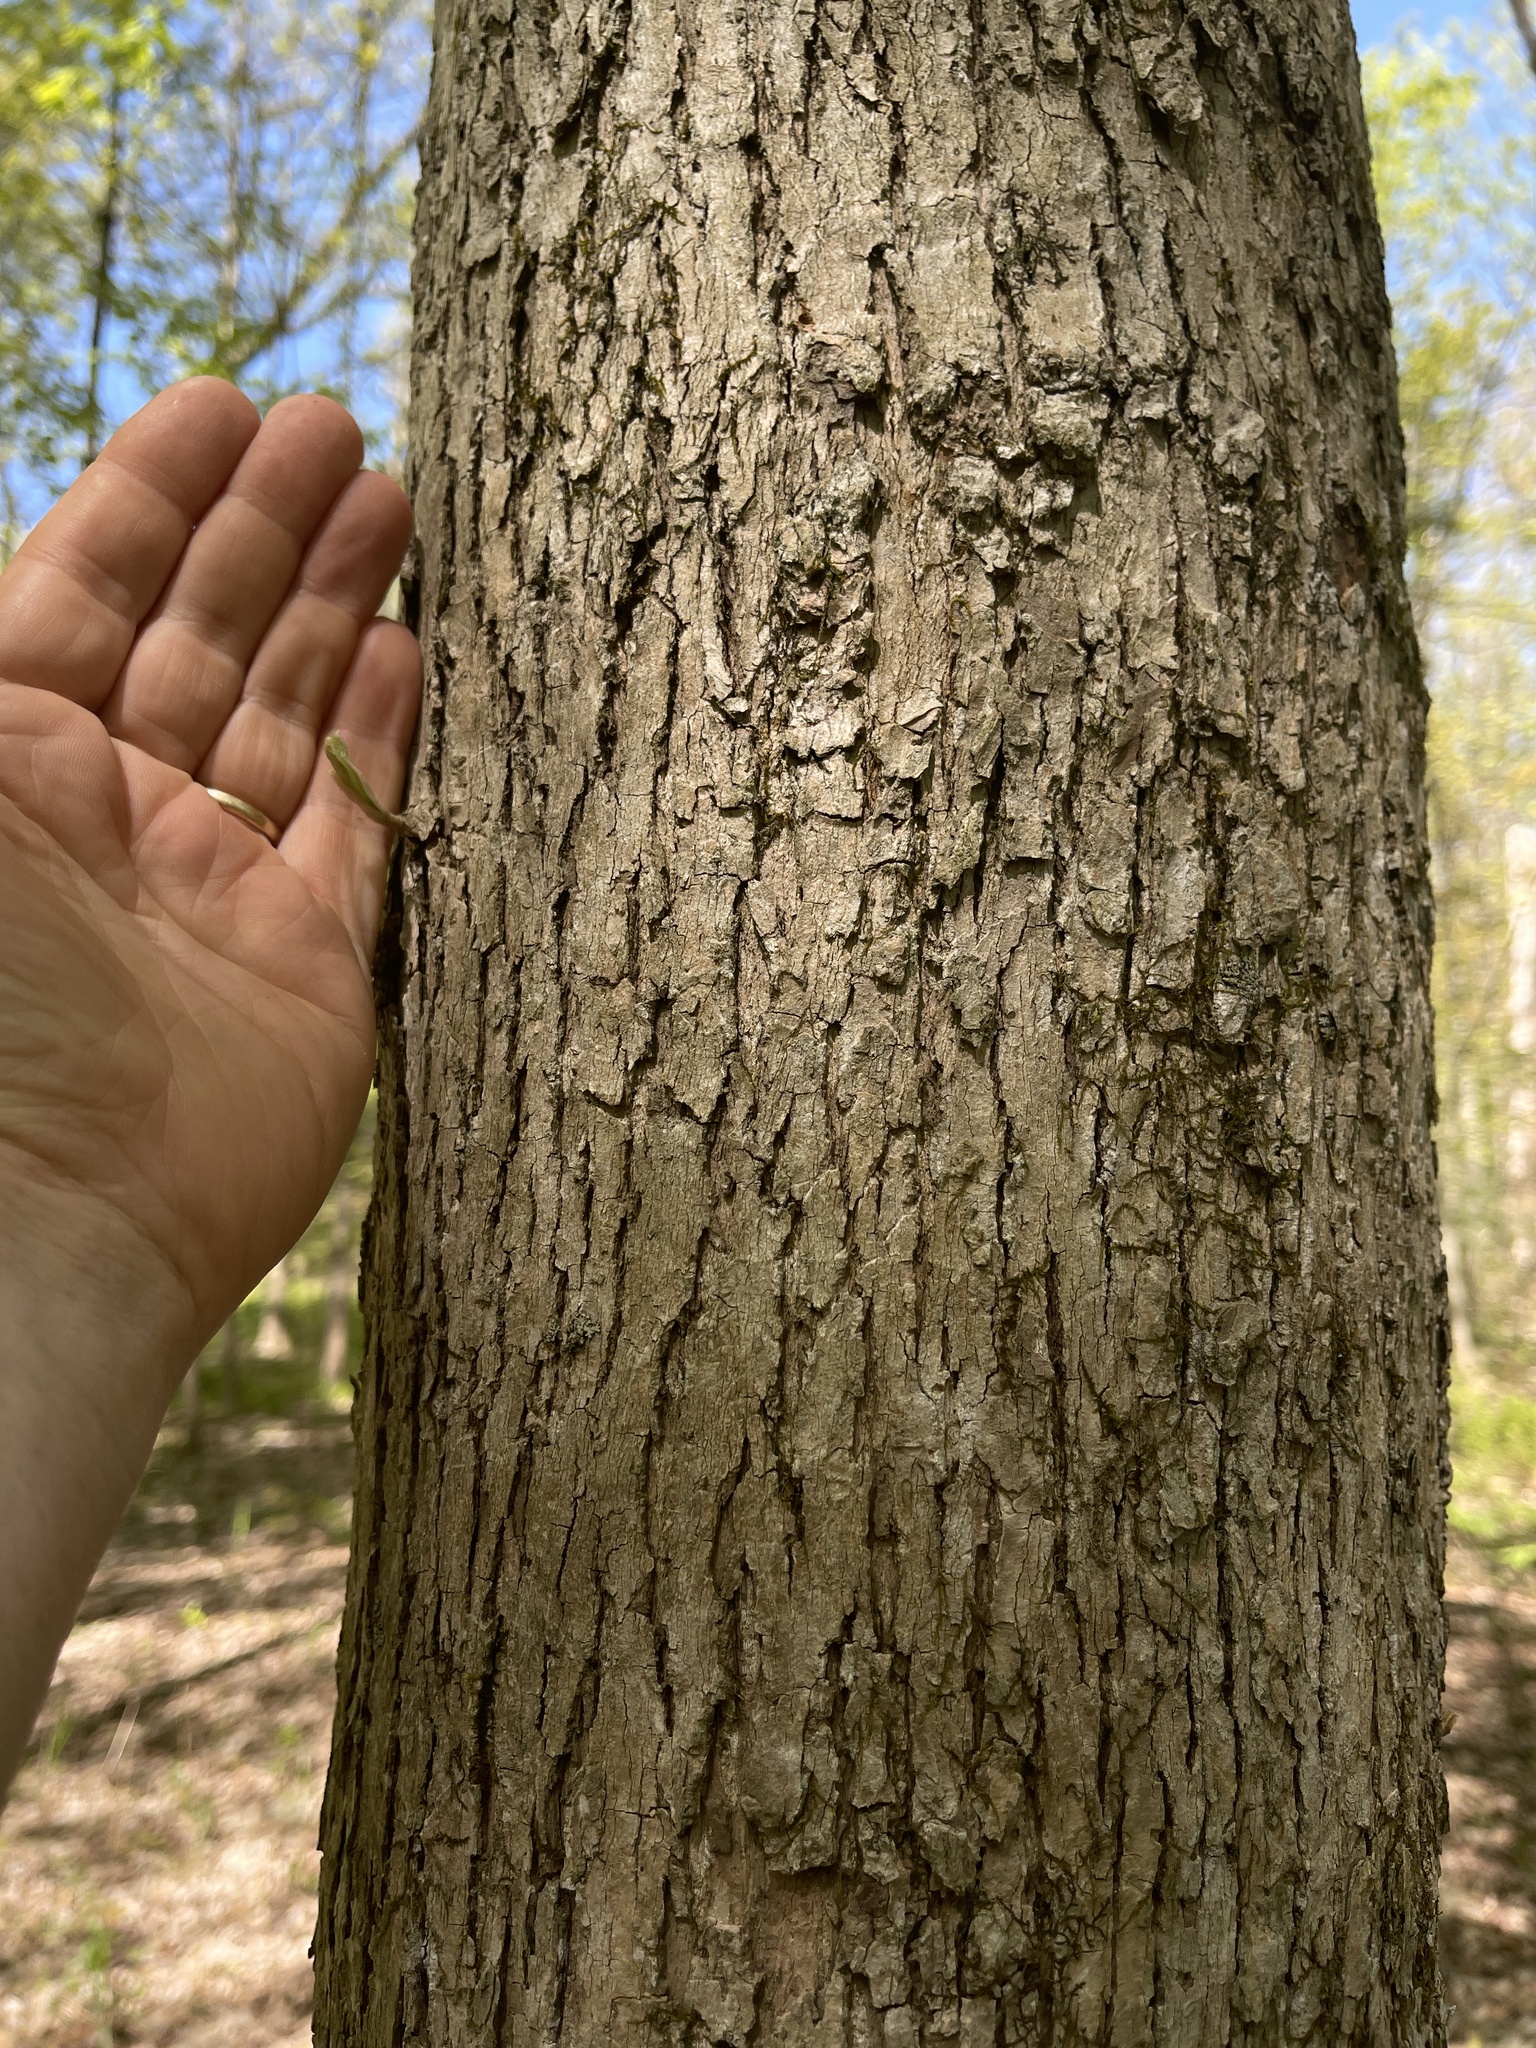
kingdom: Plantae
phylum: Tracheophyta
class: Magnoliopsida
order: Magnoliales
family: Magnoliaceae
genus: Magnolia
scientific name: Magnolia acuminata
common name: Cucumber magnolia
